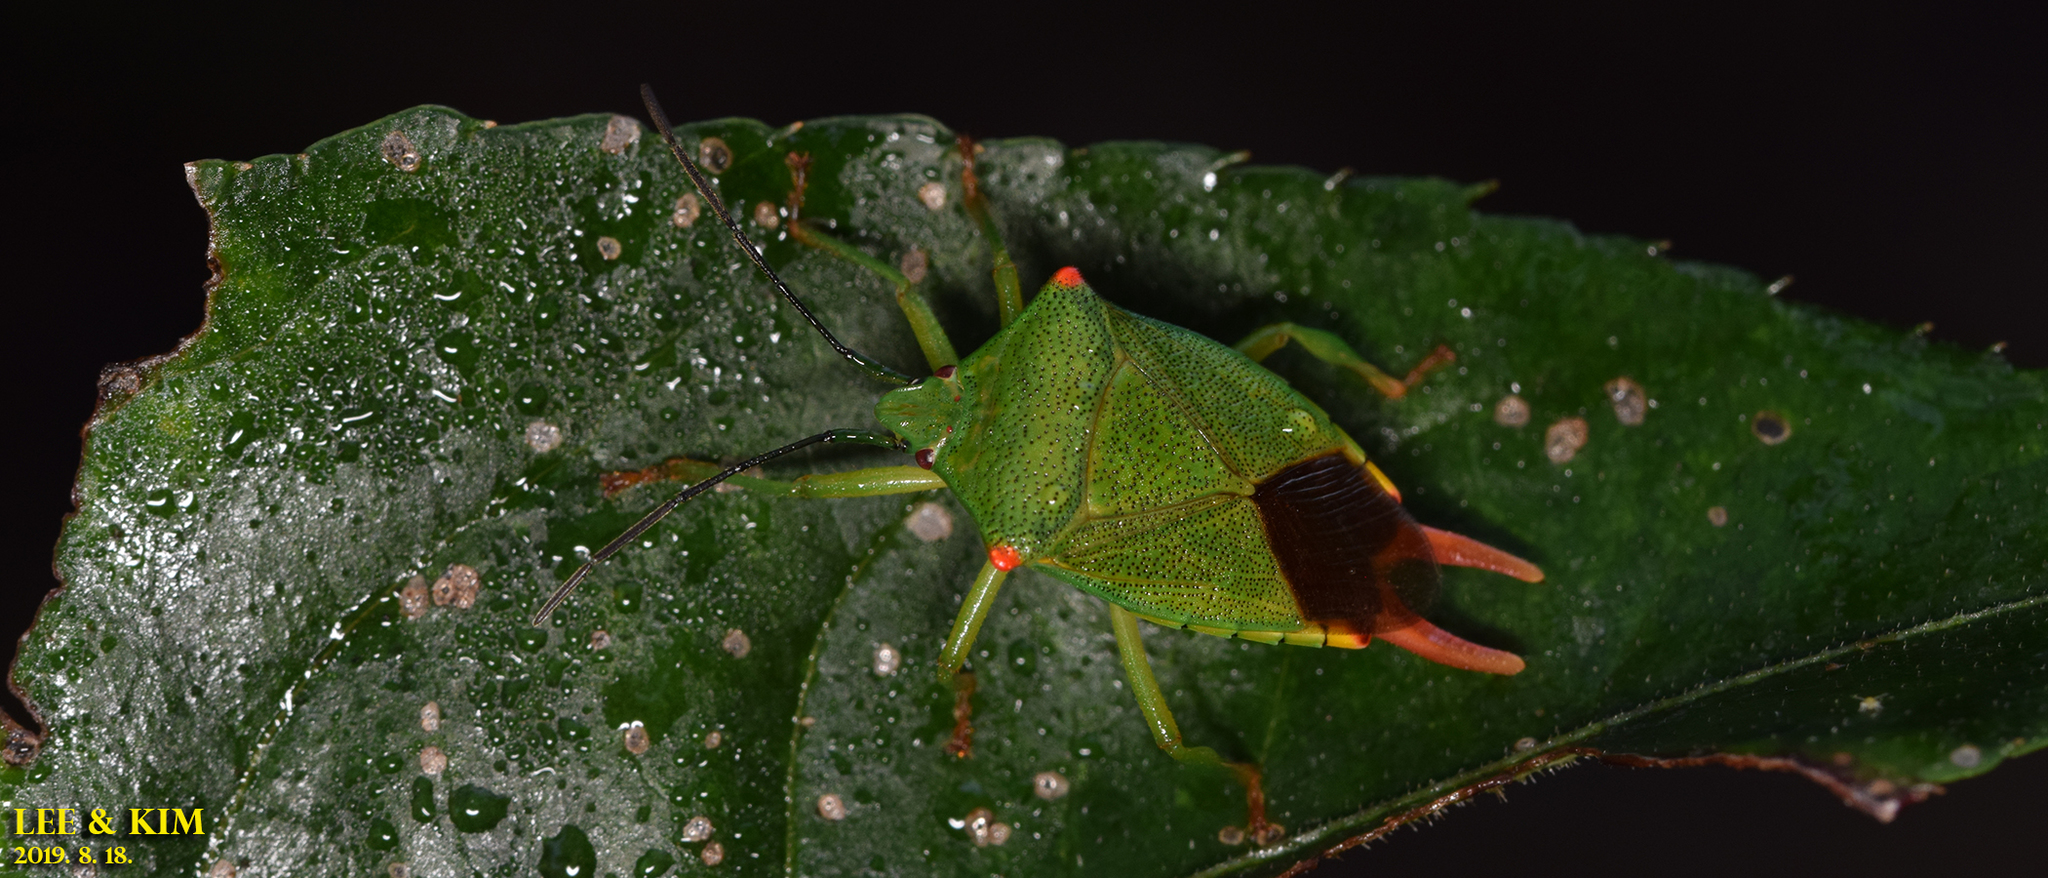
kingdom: Animalia
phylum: Arthropoda
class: Insecta
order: Hemiptera
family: Acanthosomatidae
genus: Acanthosoma
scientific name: Acanthosoma labiduroides
